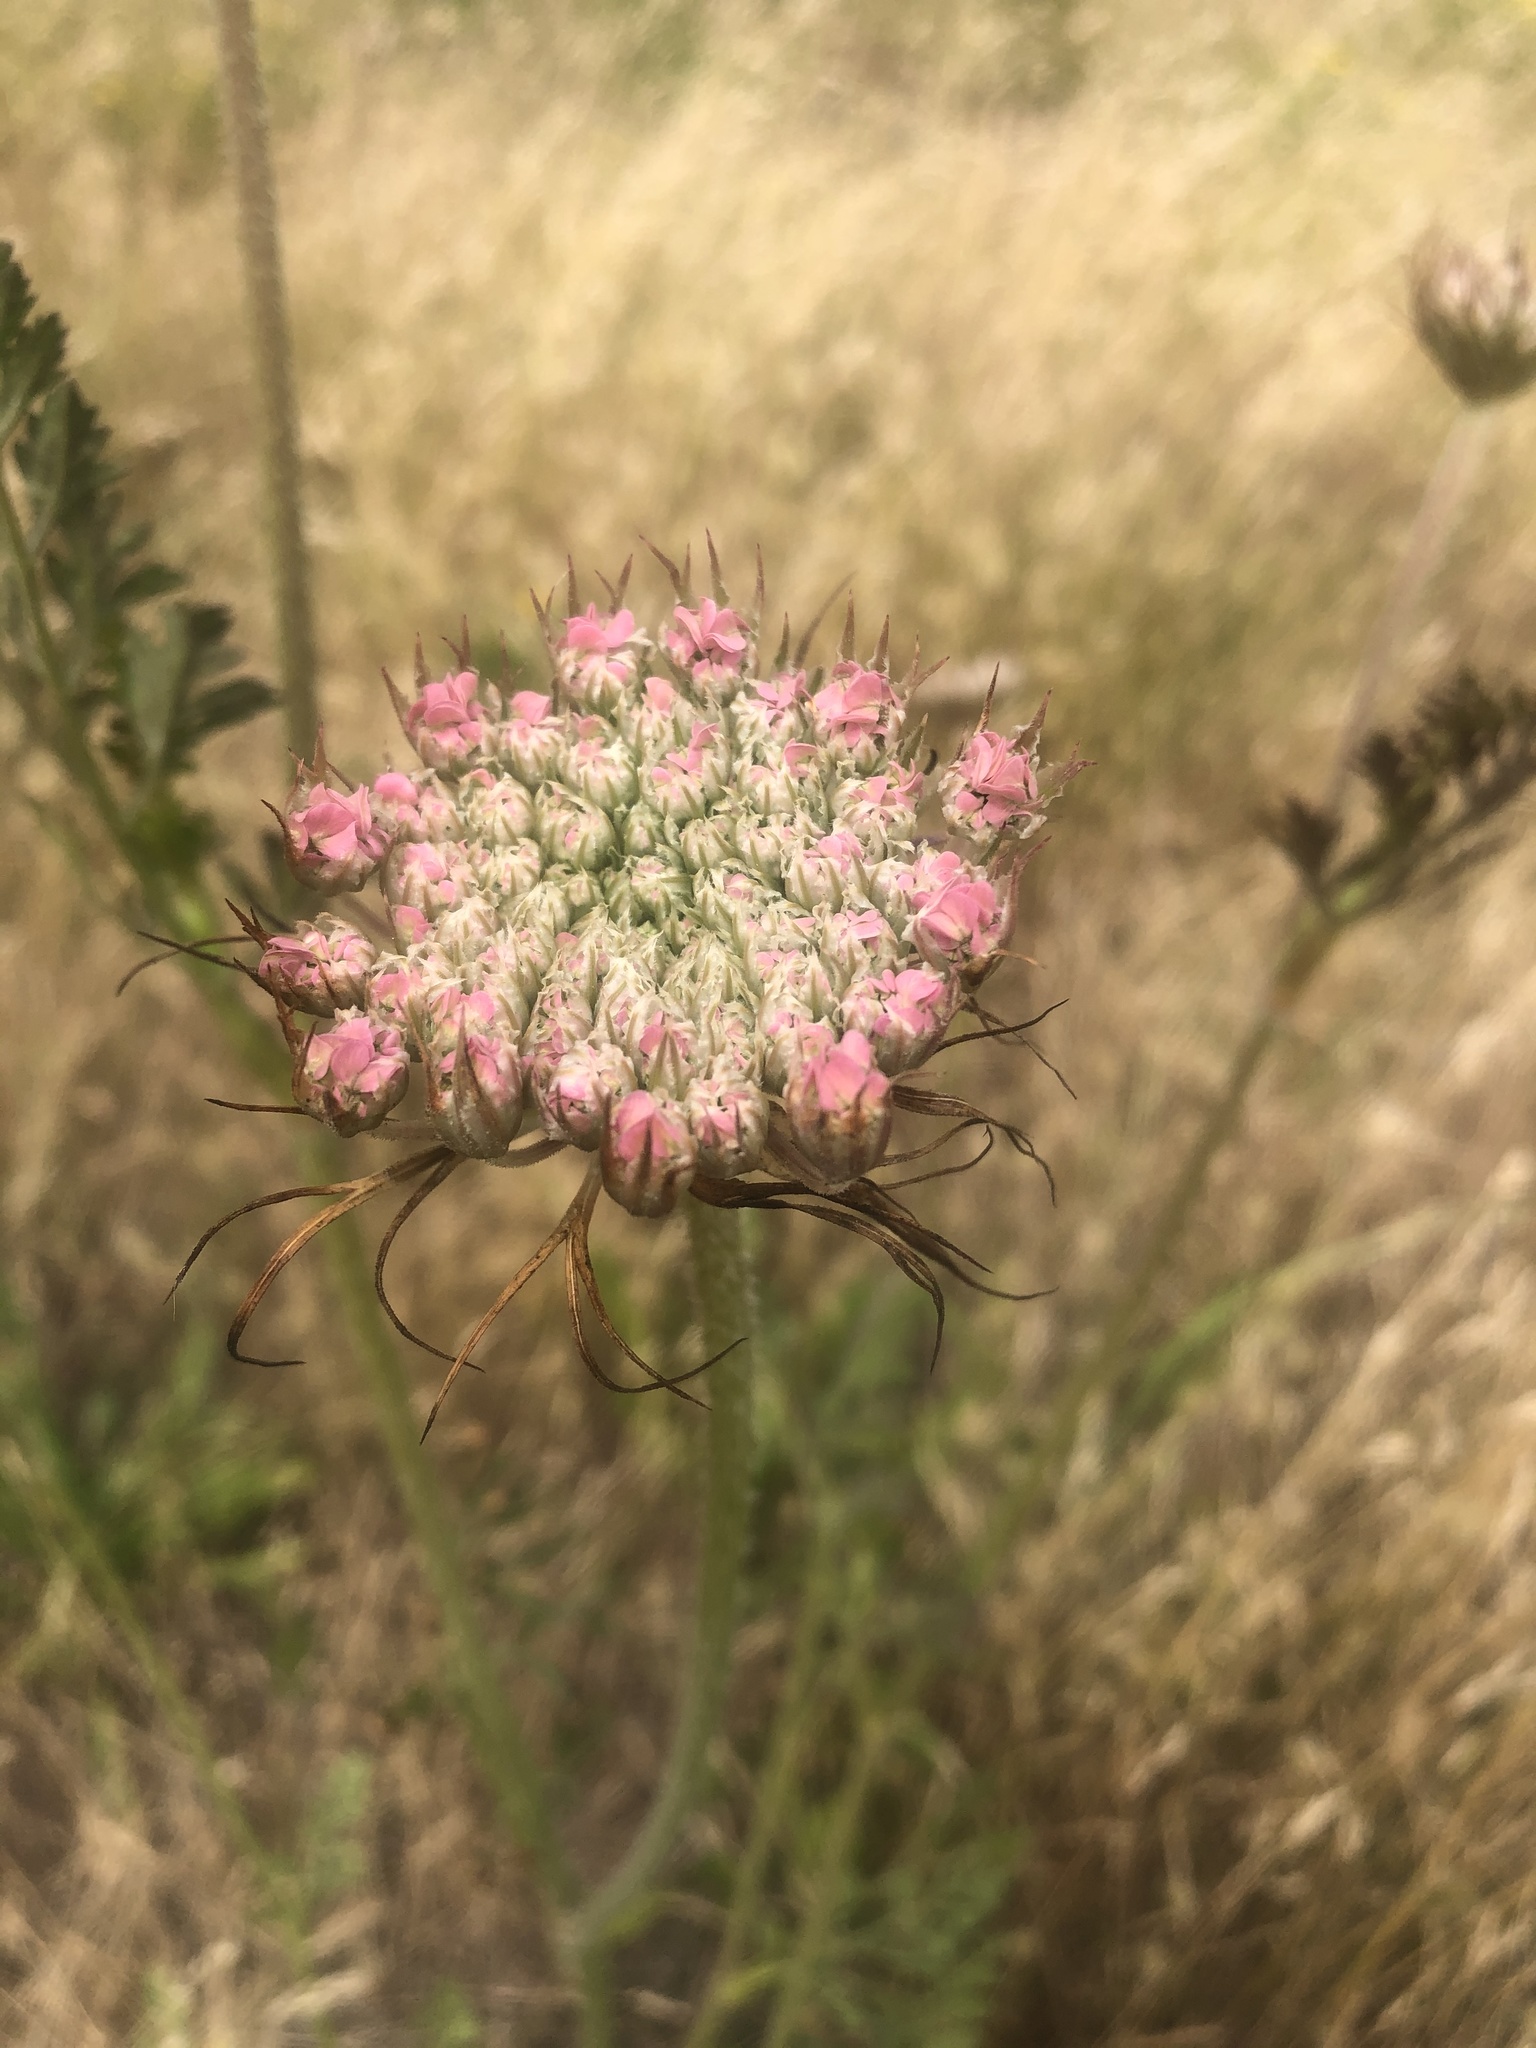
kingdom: Plantae
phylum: Tracheophyta
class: Magnoliopsida
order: Apiales
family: Apiaceae
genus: Daucus
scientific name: Daucus carota
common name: Wild carrot
